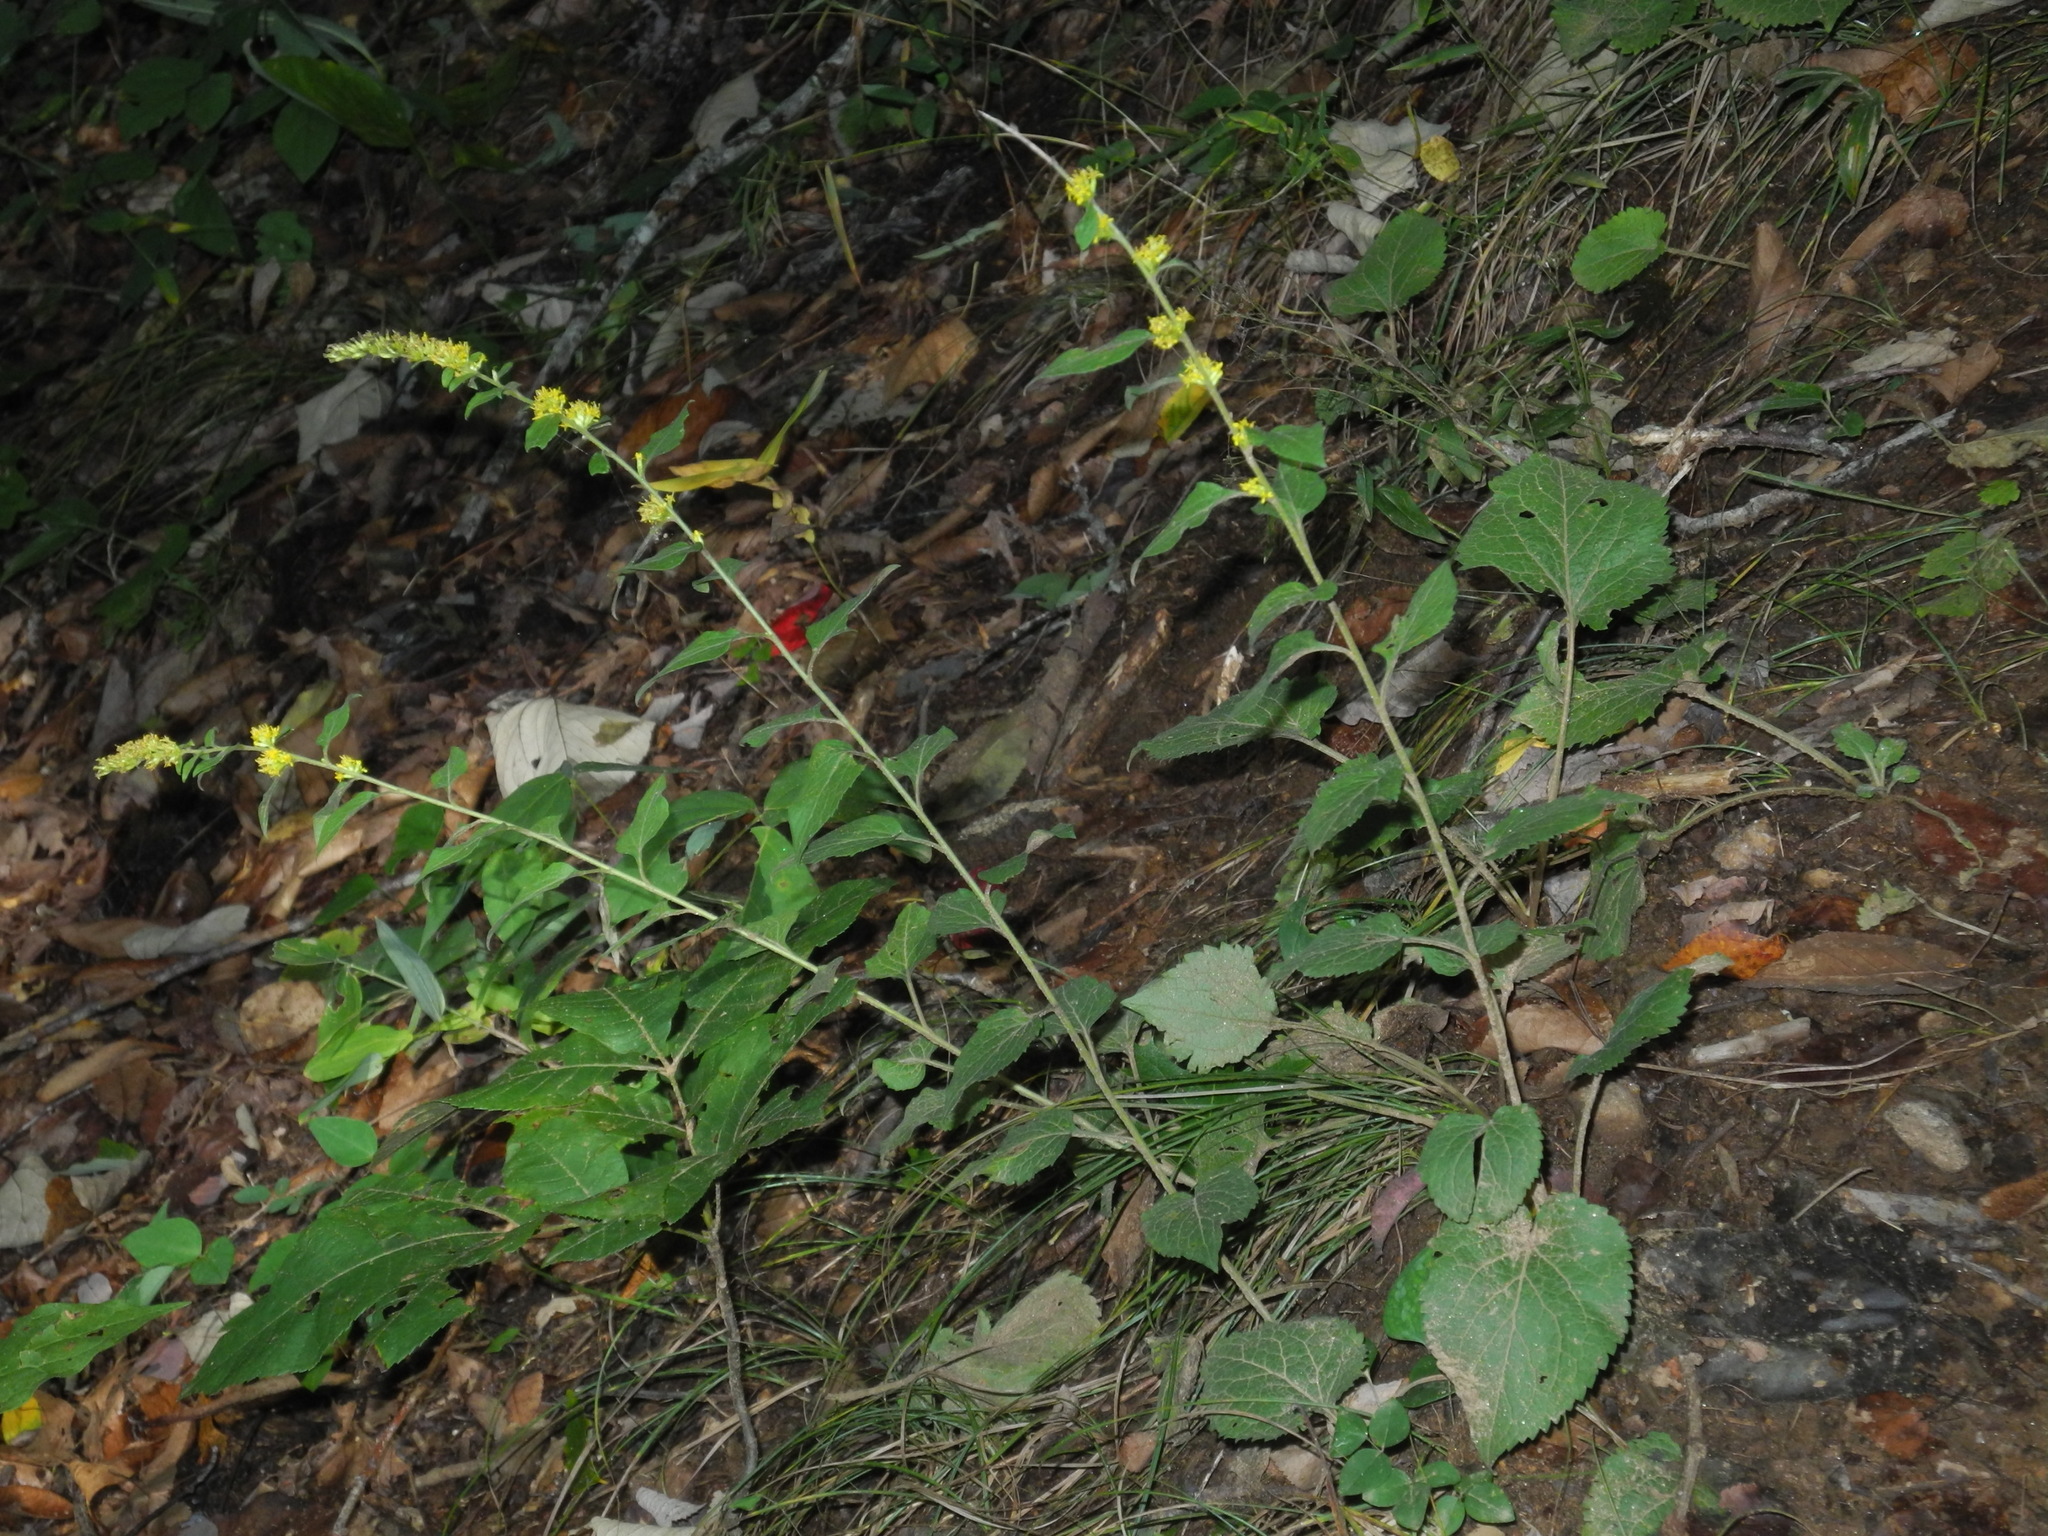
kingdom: Plantae
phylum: Tracheophyta
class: Magnoliopsida
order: Asterales
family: Asteraceae
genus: Solidago
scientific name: Solidago sphacelata
